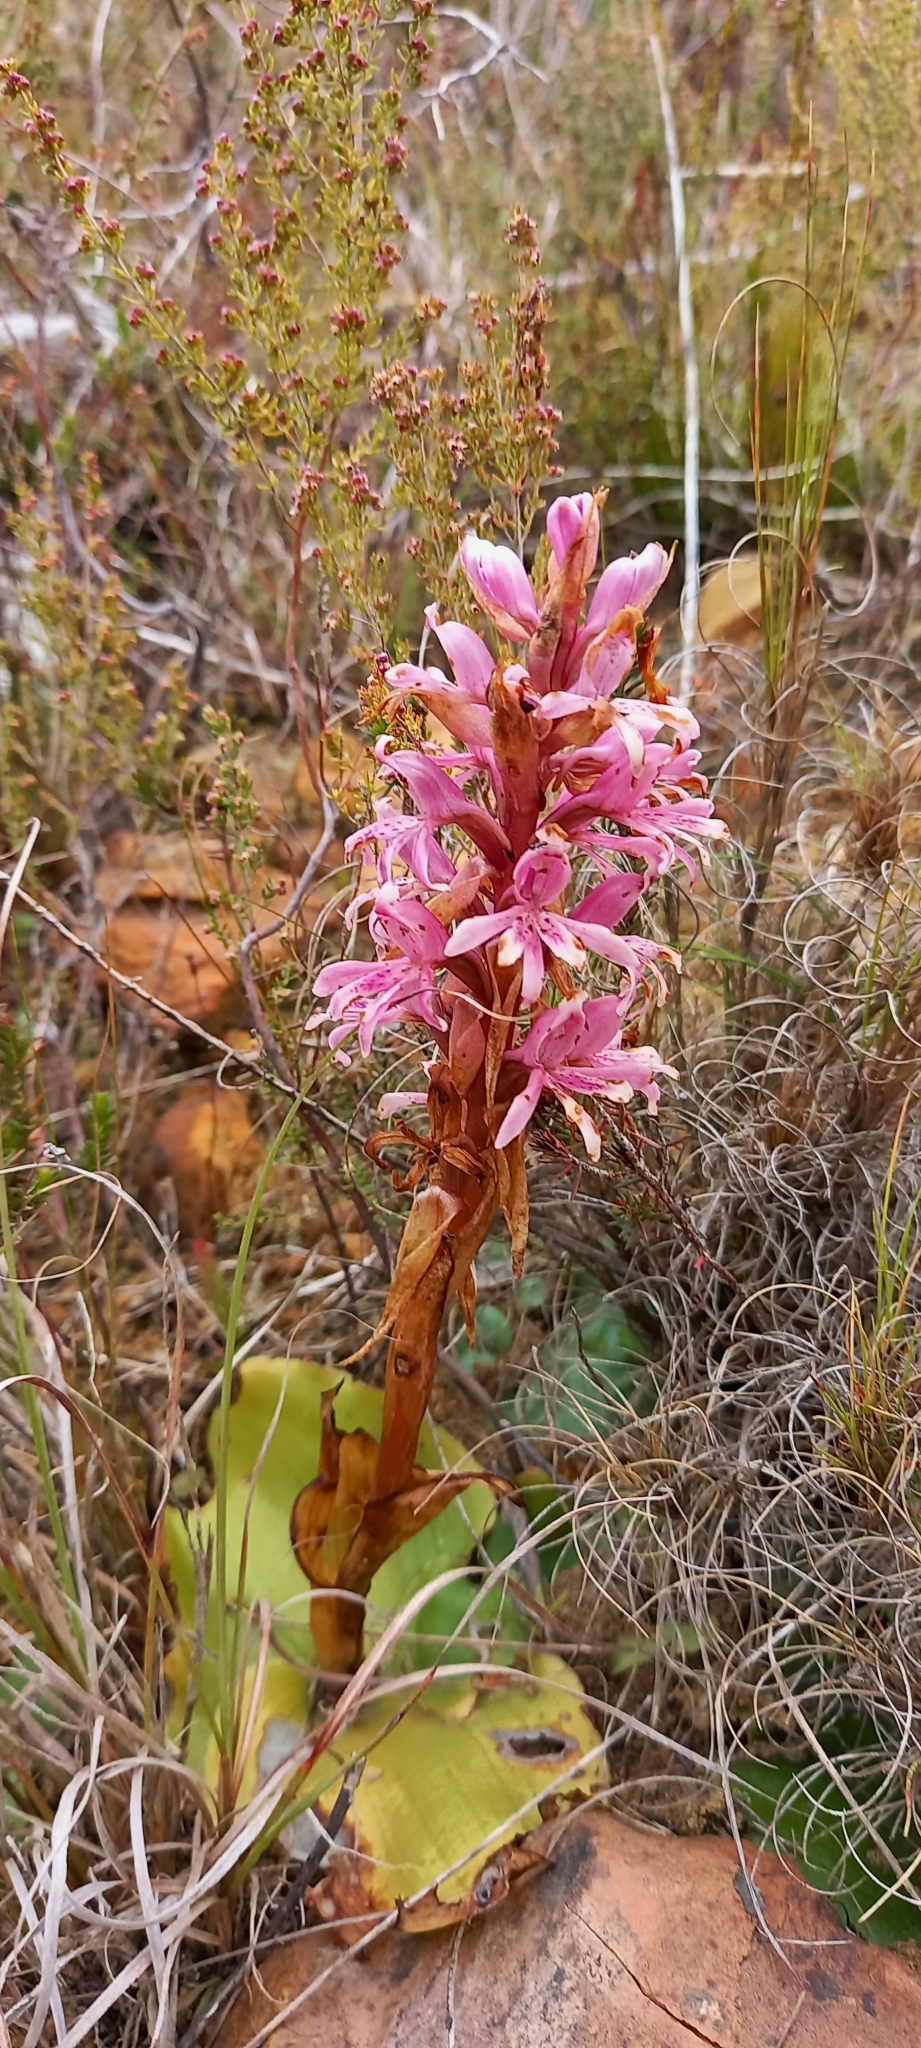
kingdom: Plantae
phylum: Tracheophyta
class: Liliopsida
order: Asparagales
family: Orchidaceae
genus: Satyrium
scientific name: Satyrium erectum
